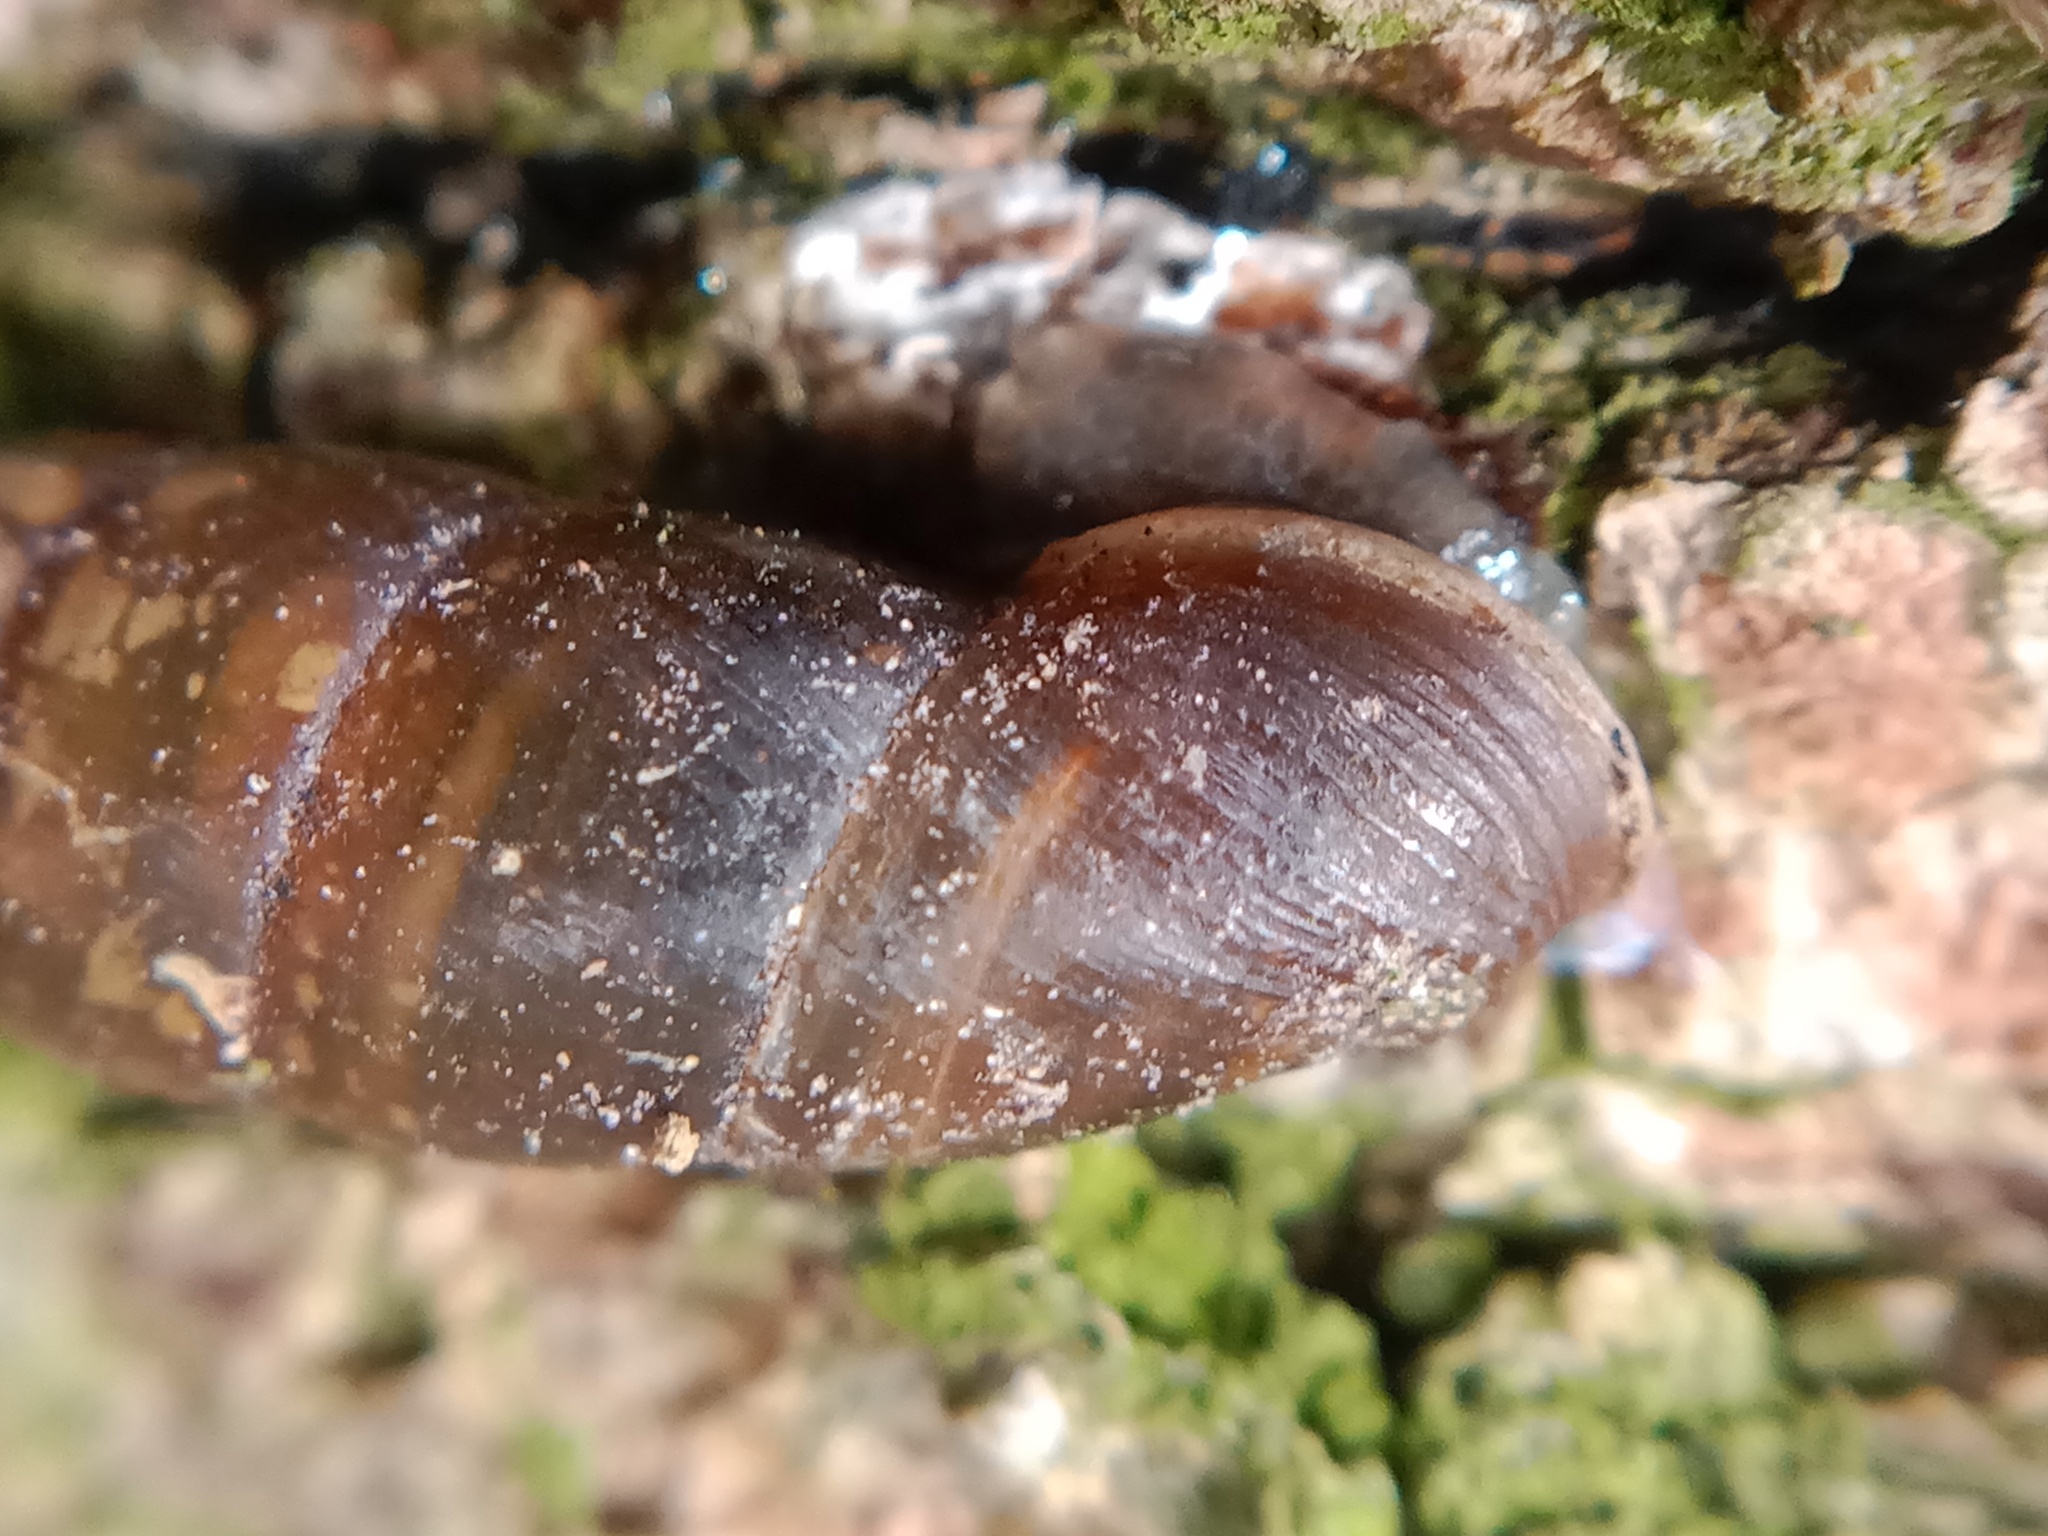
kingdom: Animalia
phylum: Mollusca
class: Gastropoda
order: Stylommatophora
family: Clausiliidae
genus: Cochlodina
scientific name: Cochlodina laminata
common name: Plaited door snail
